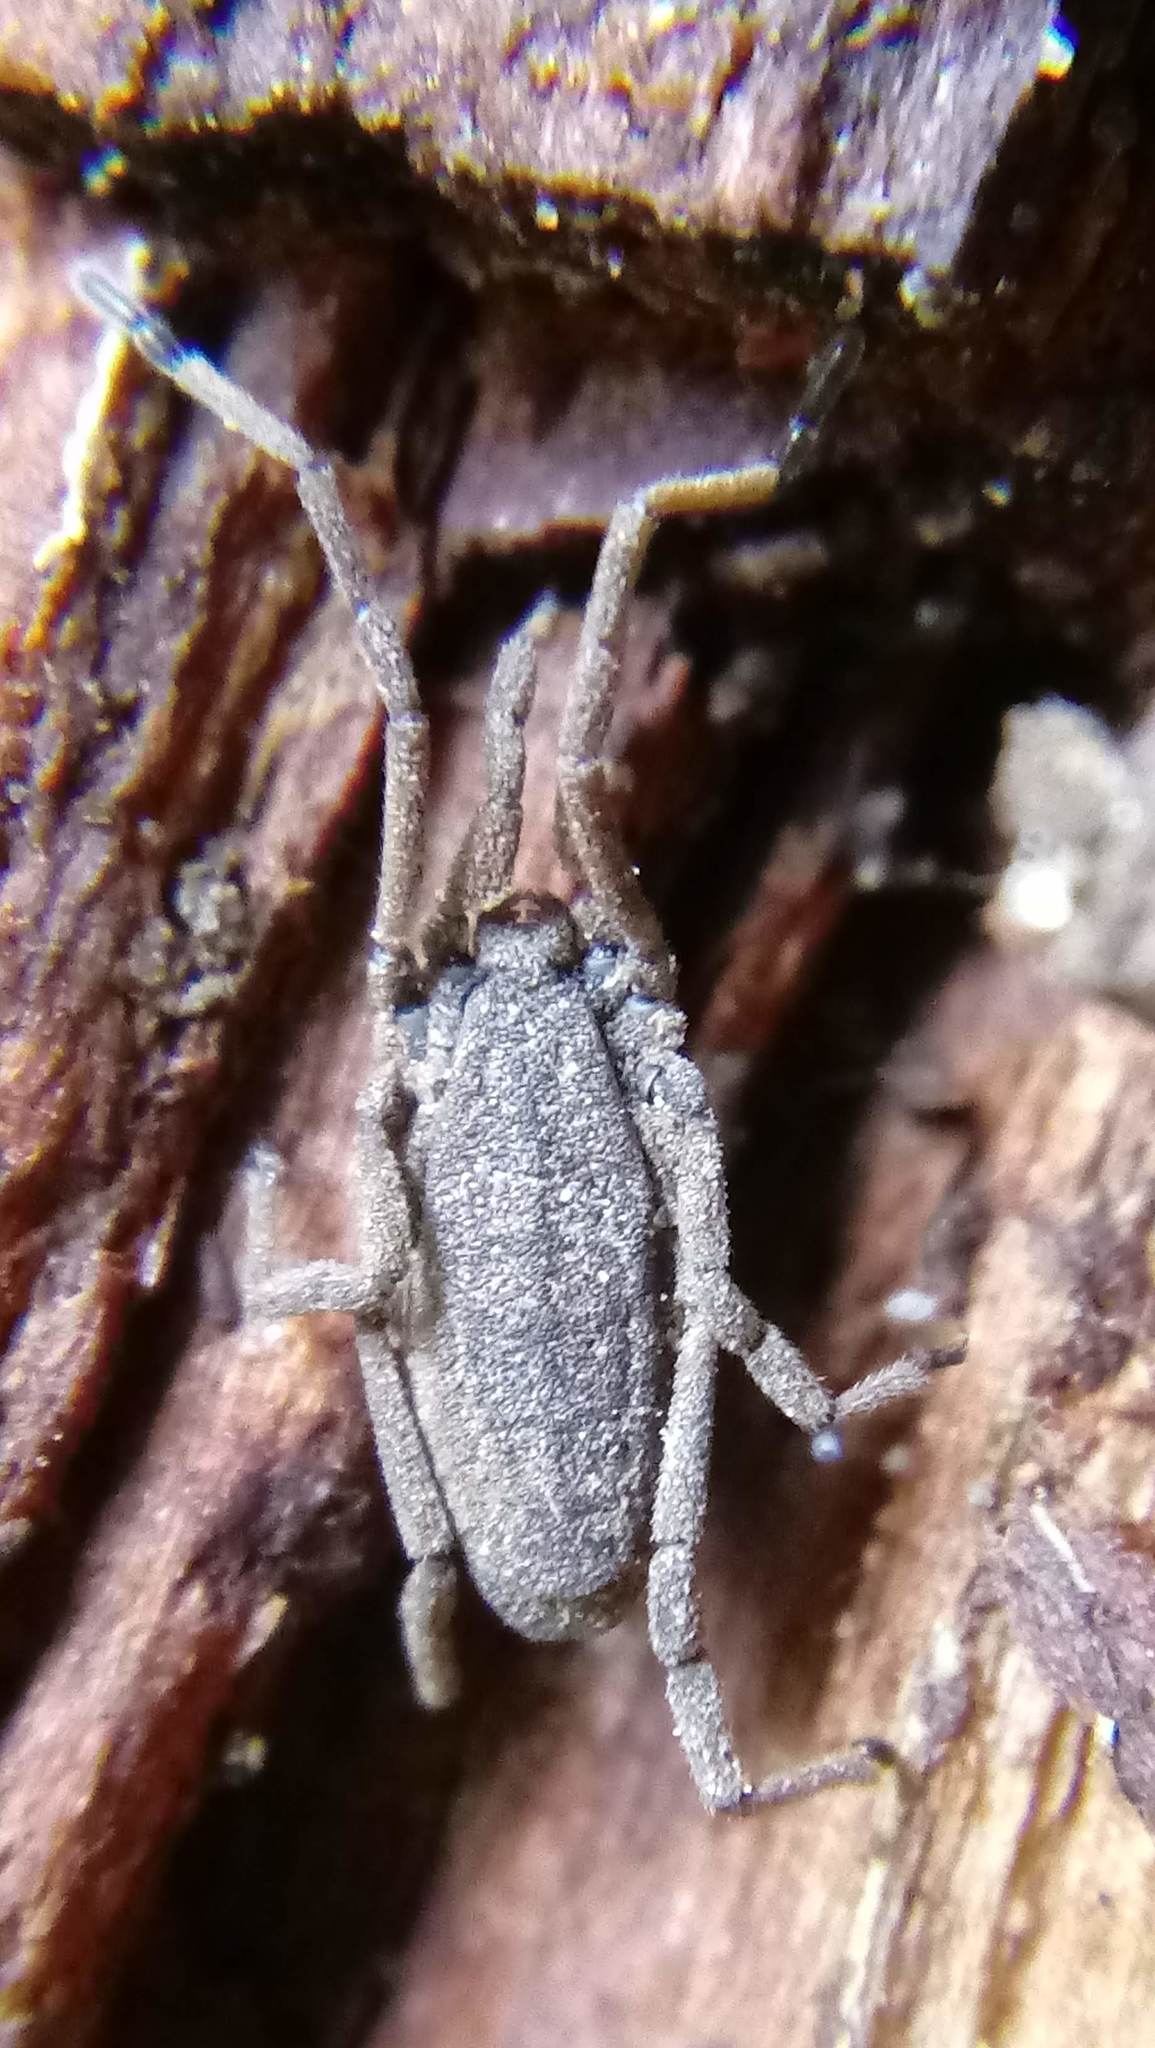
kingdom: Animalia
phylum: Arthropoda
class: Arachnida
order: Opiliones
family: Trogulidae
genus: Trogulus
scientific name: Trogulus tricarinatus
